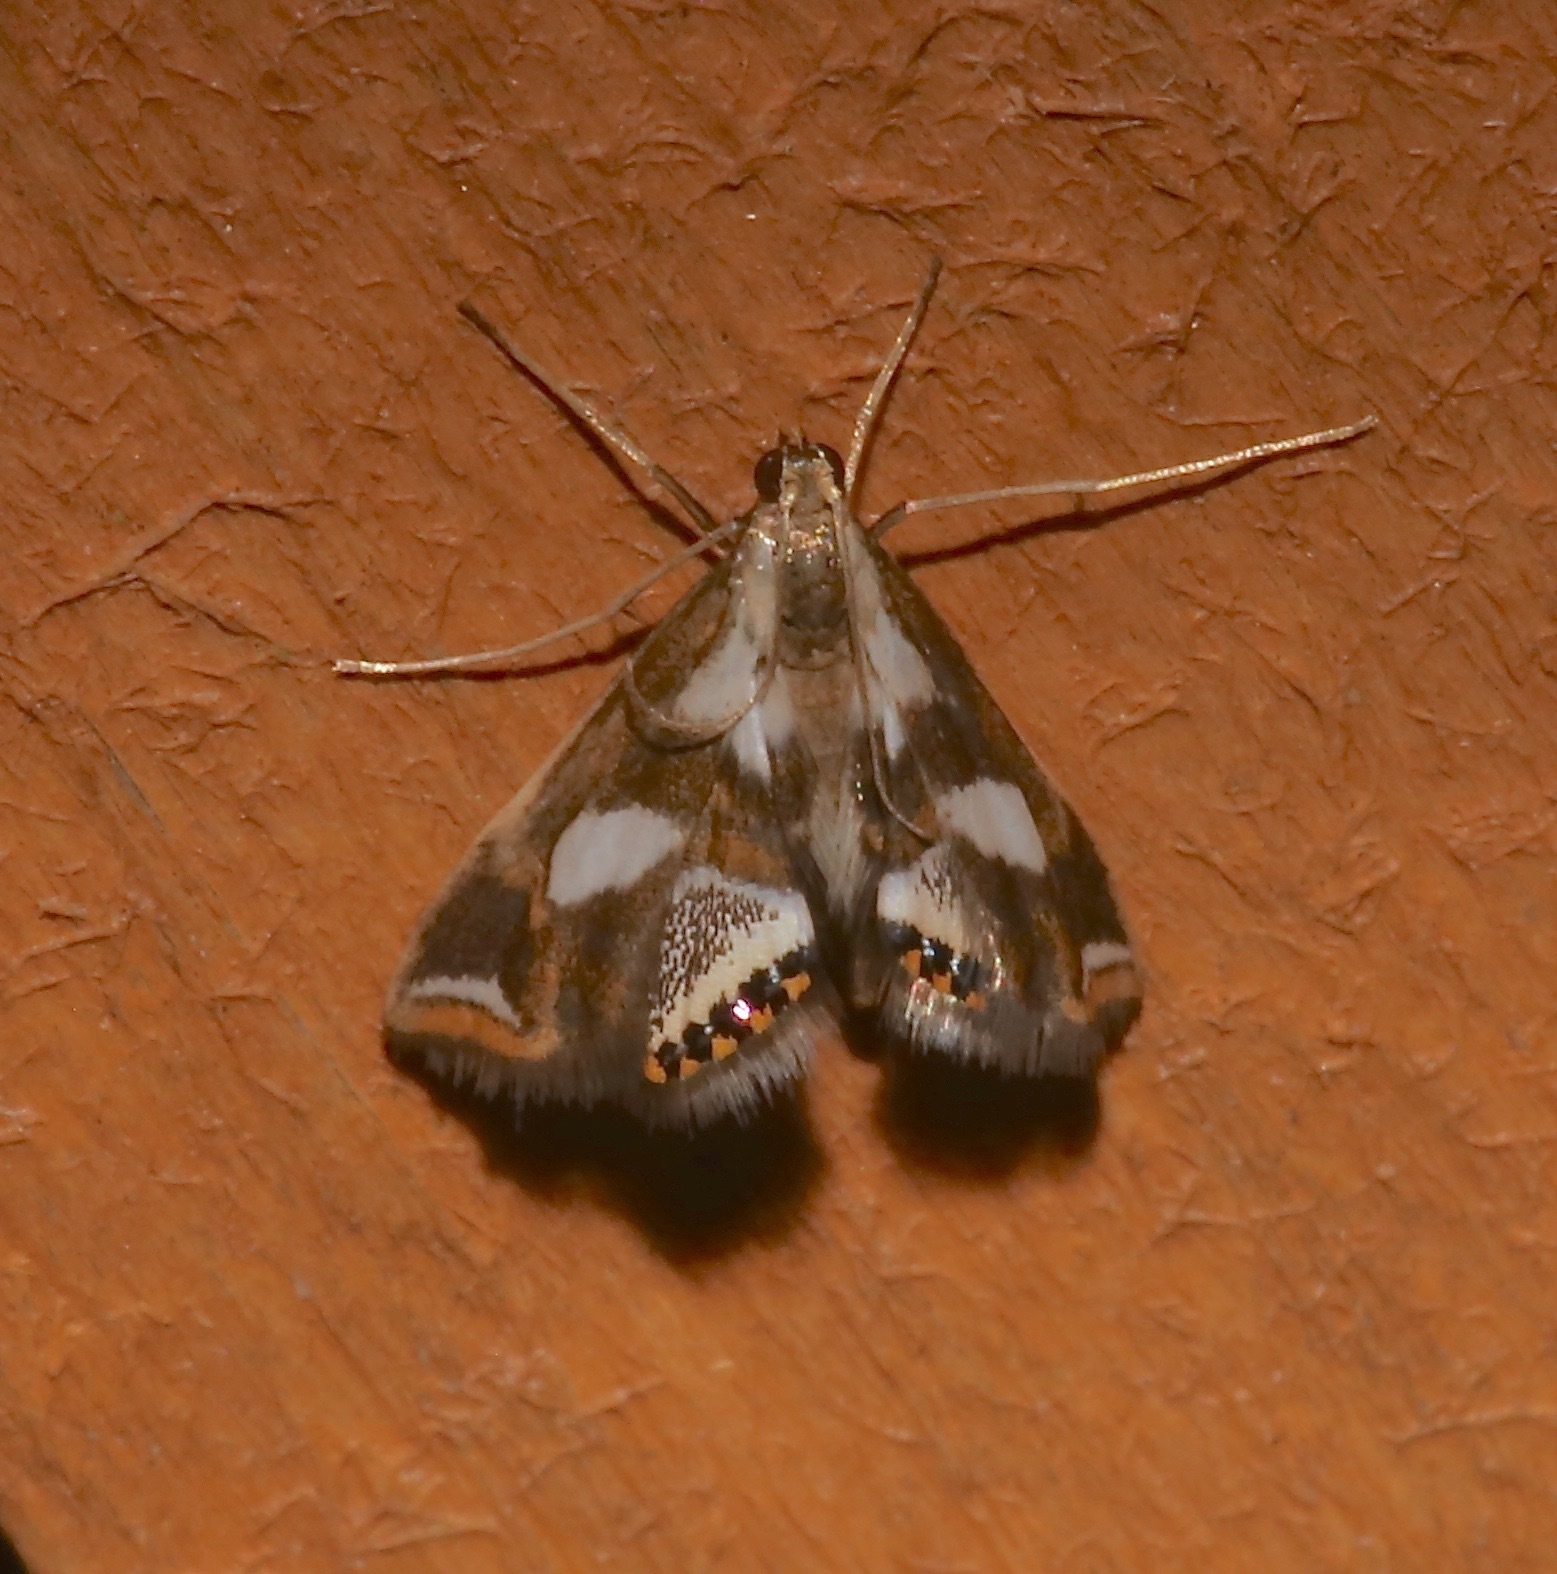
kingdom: Animalia
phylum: Arthropoda
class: Insecta
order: Lepidoptera
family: Crambidae
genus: Chrysendeton
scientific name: Chrysendeton imitabilis
